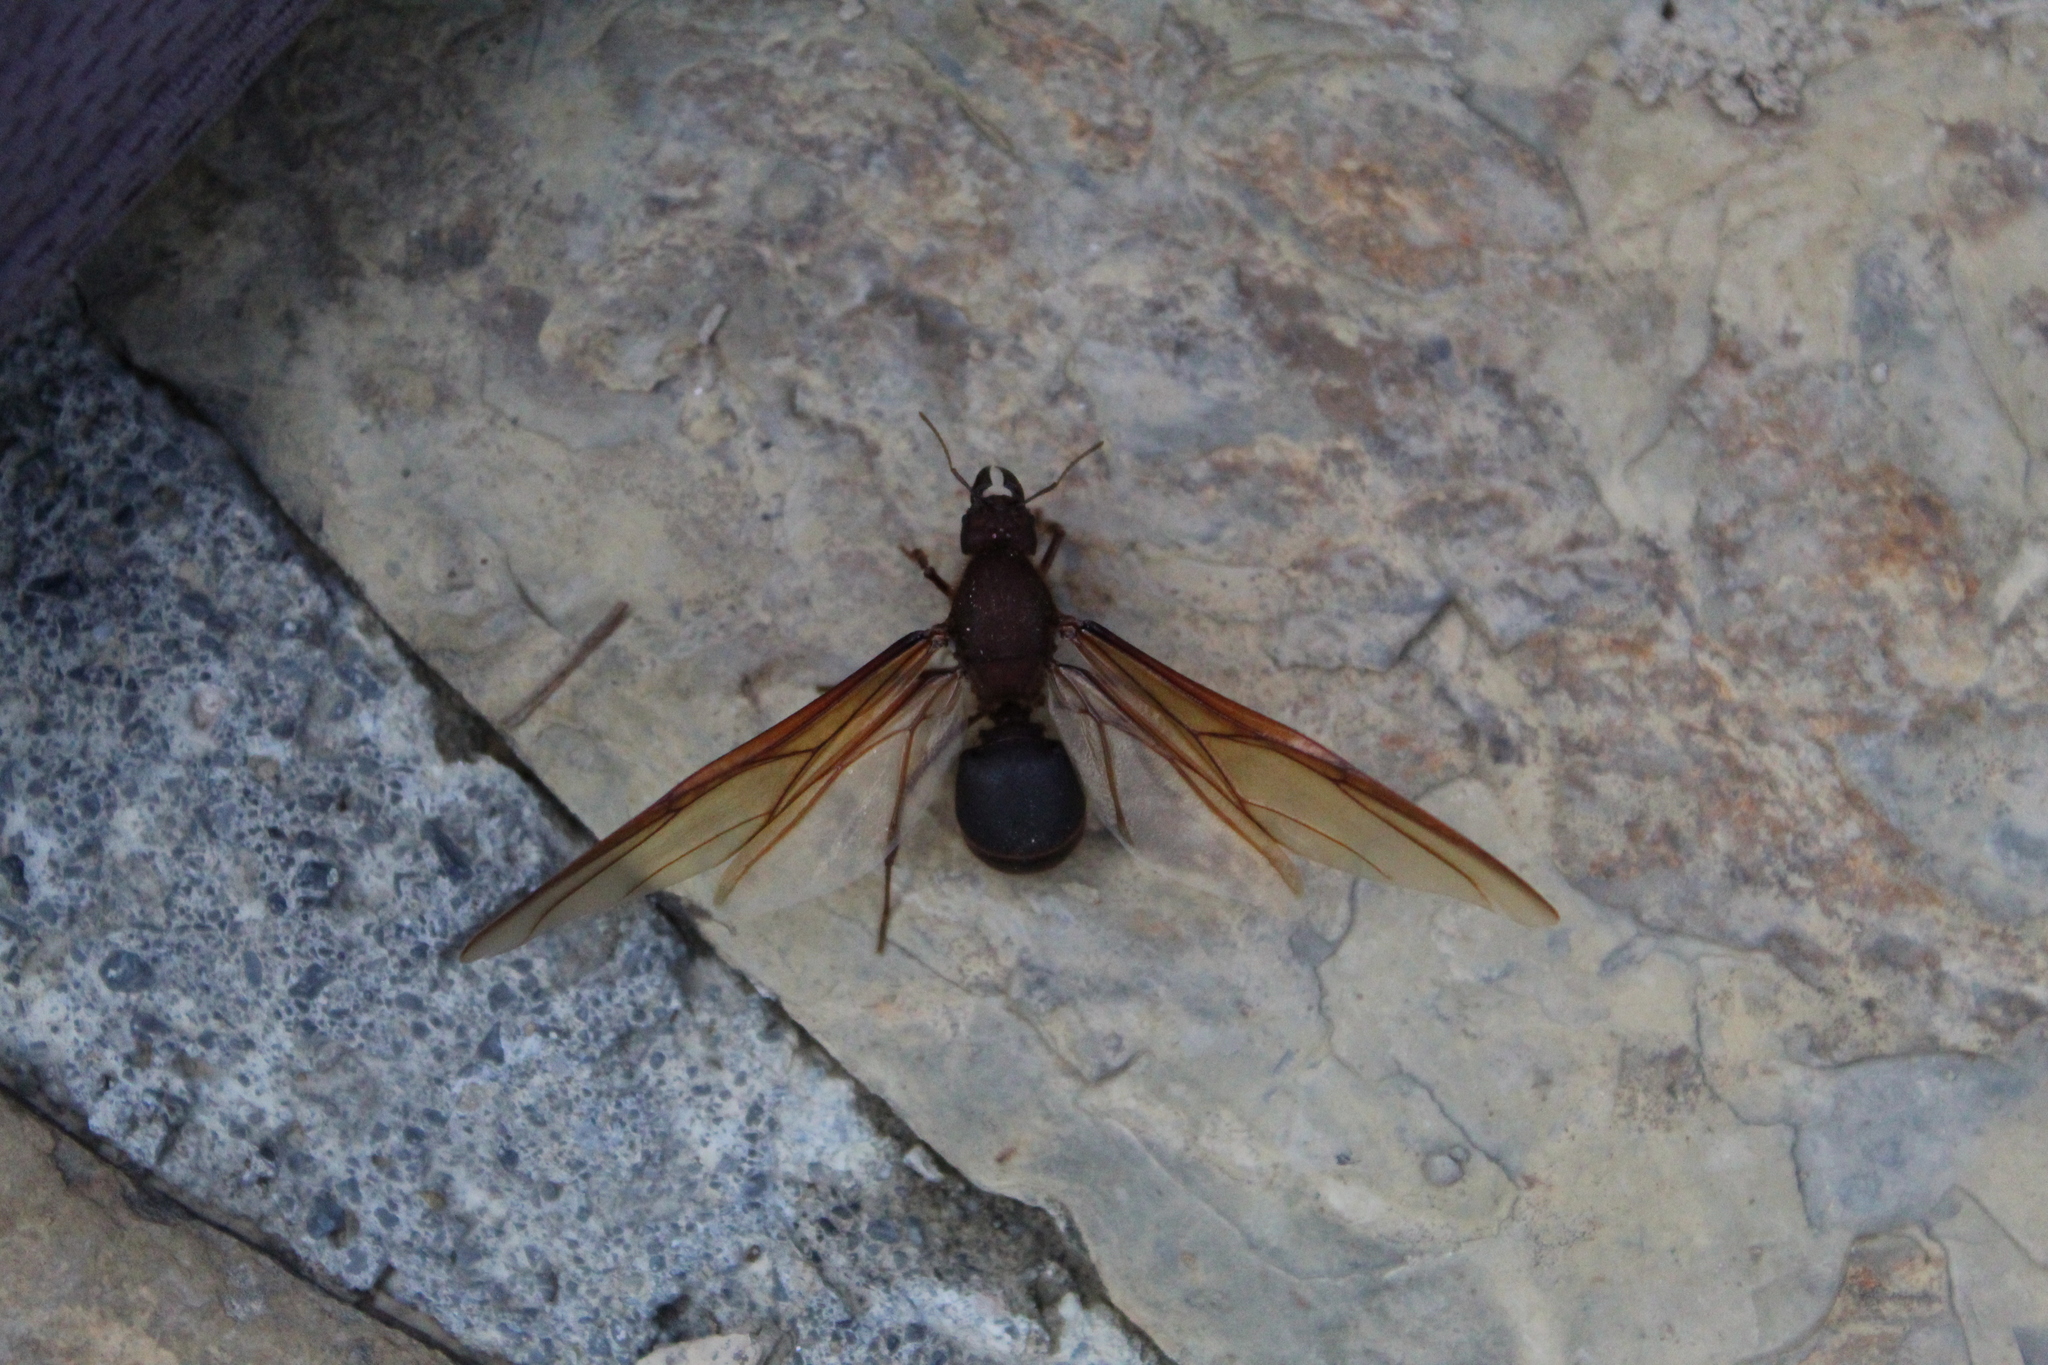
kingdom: Animalia
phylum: Arthropoda
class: Insecta
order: Hymenoptera
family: Formicidae
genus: Atta
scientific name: Atta mexicana
